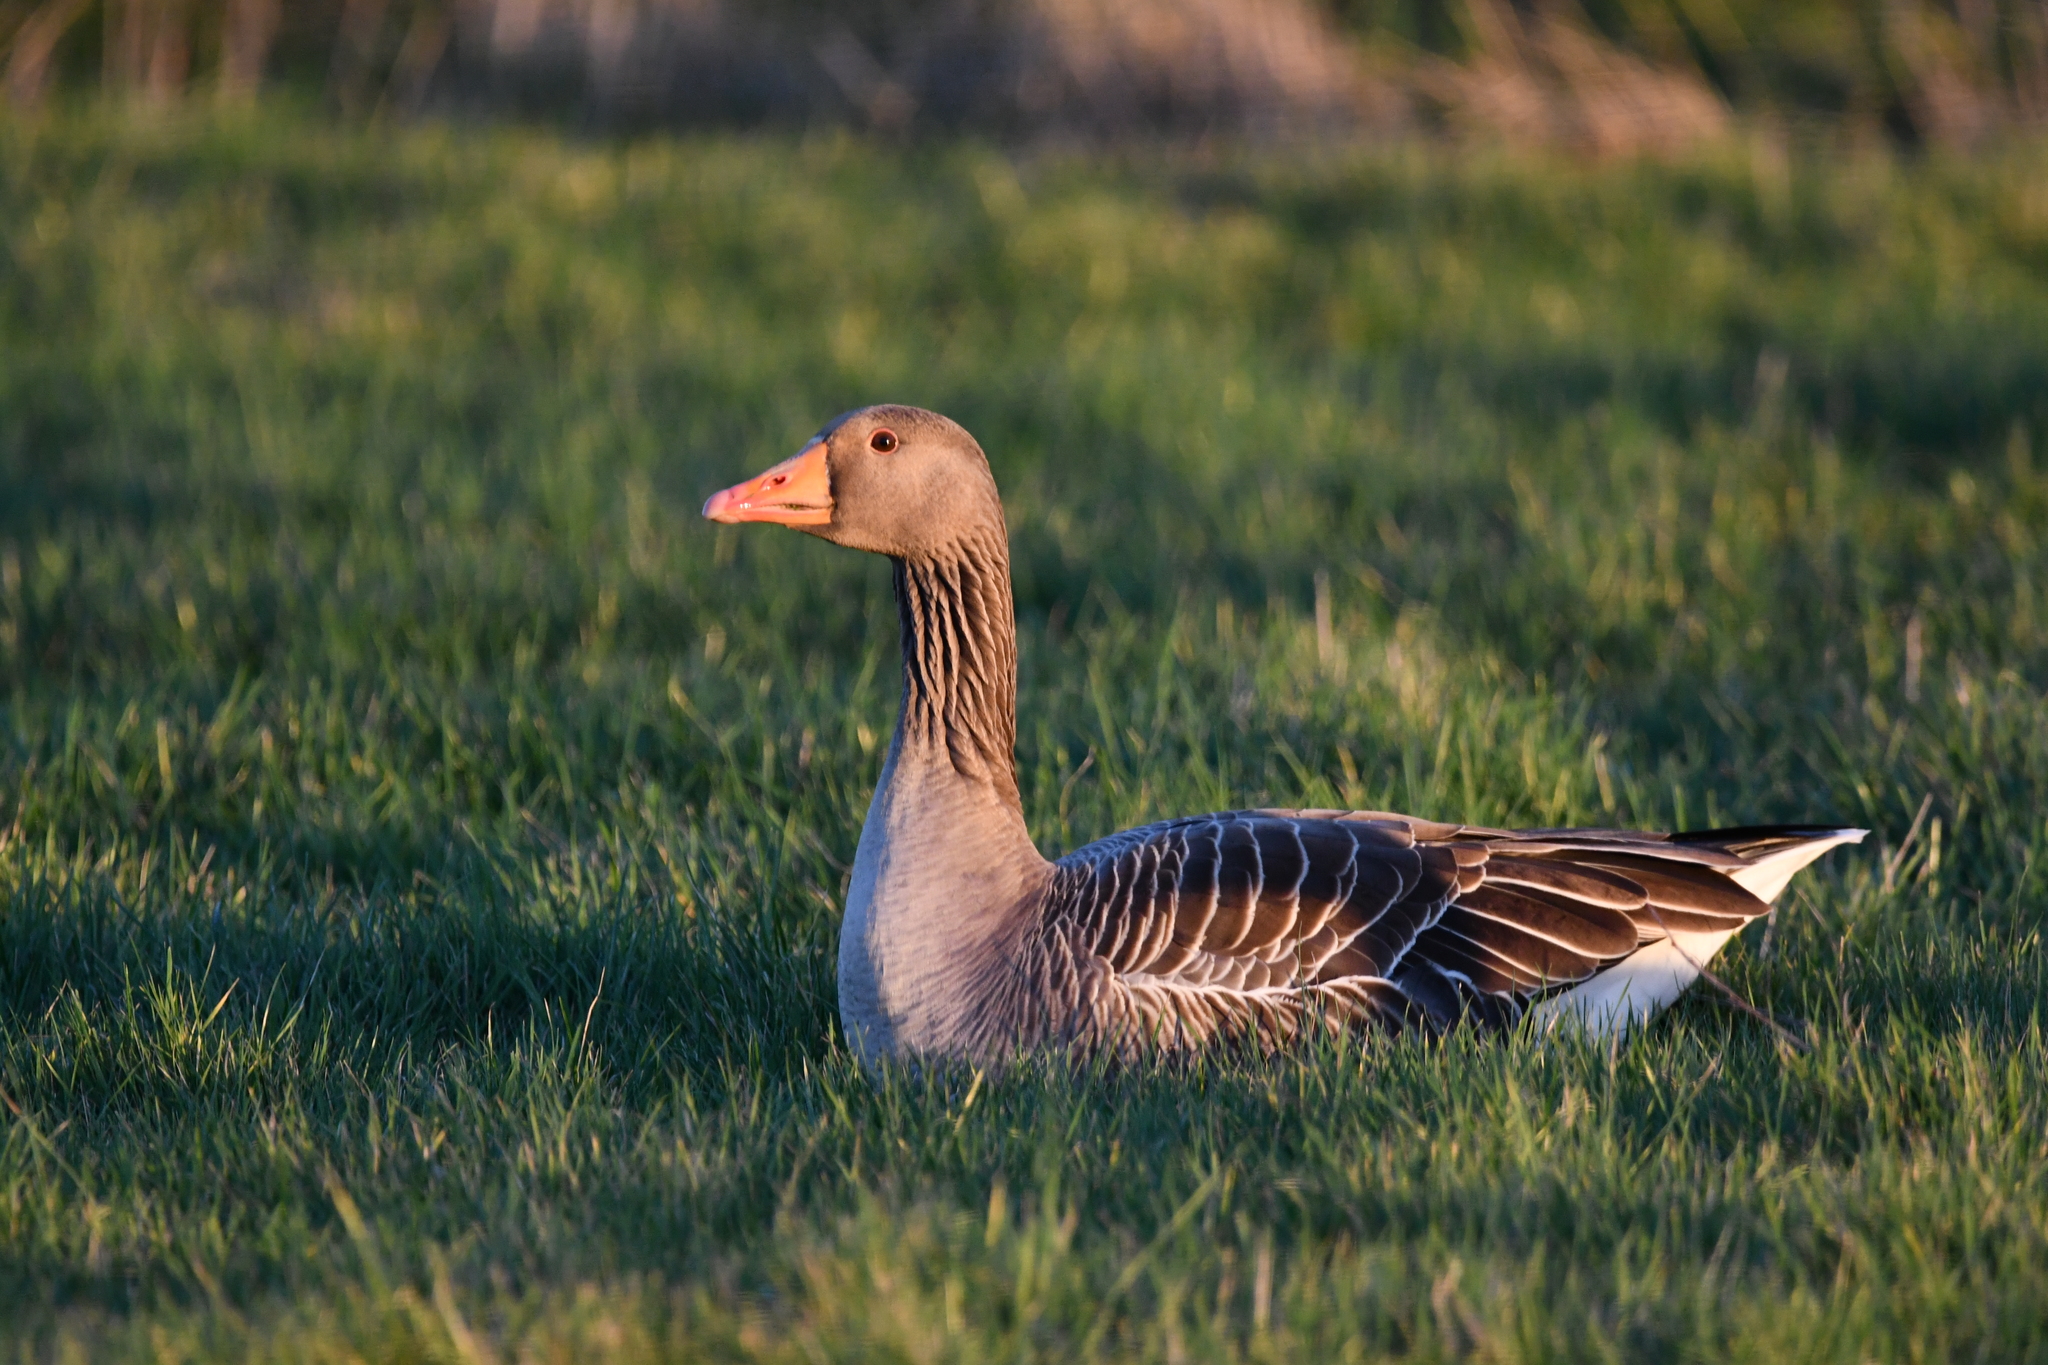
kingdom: Animalia
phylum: Chordata
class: Aves
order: Anseriformes
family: Anatidae
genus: Anser
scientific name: Anser anser
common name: Greylag goose
